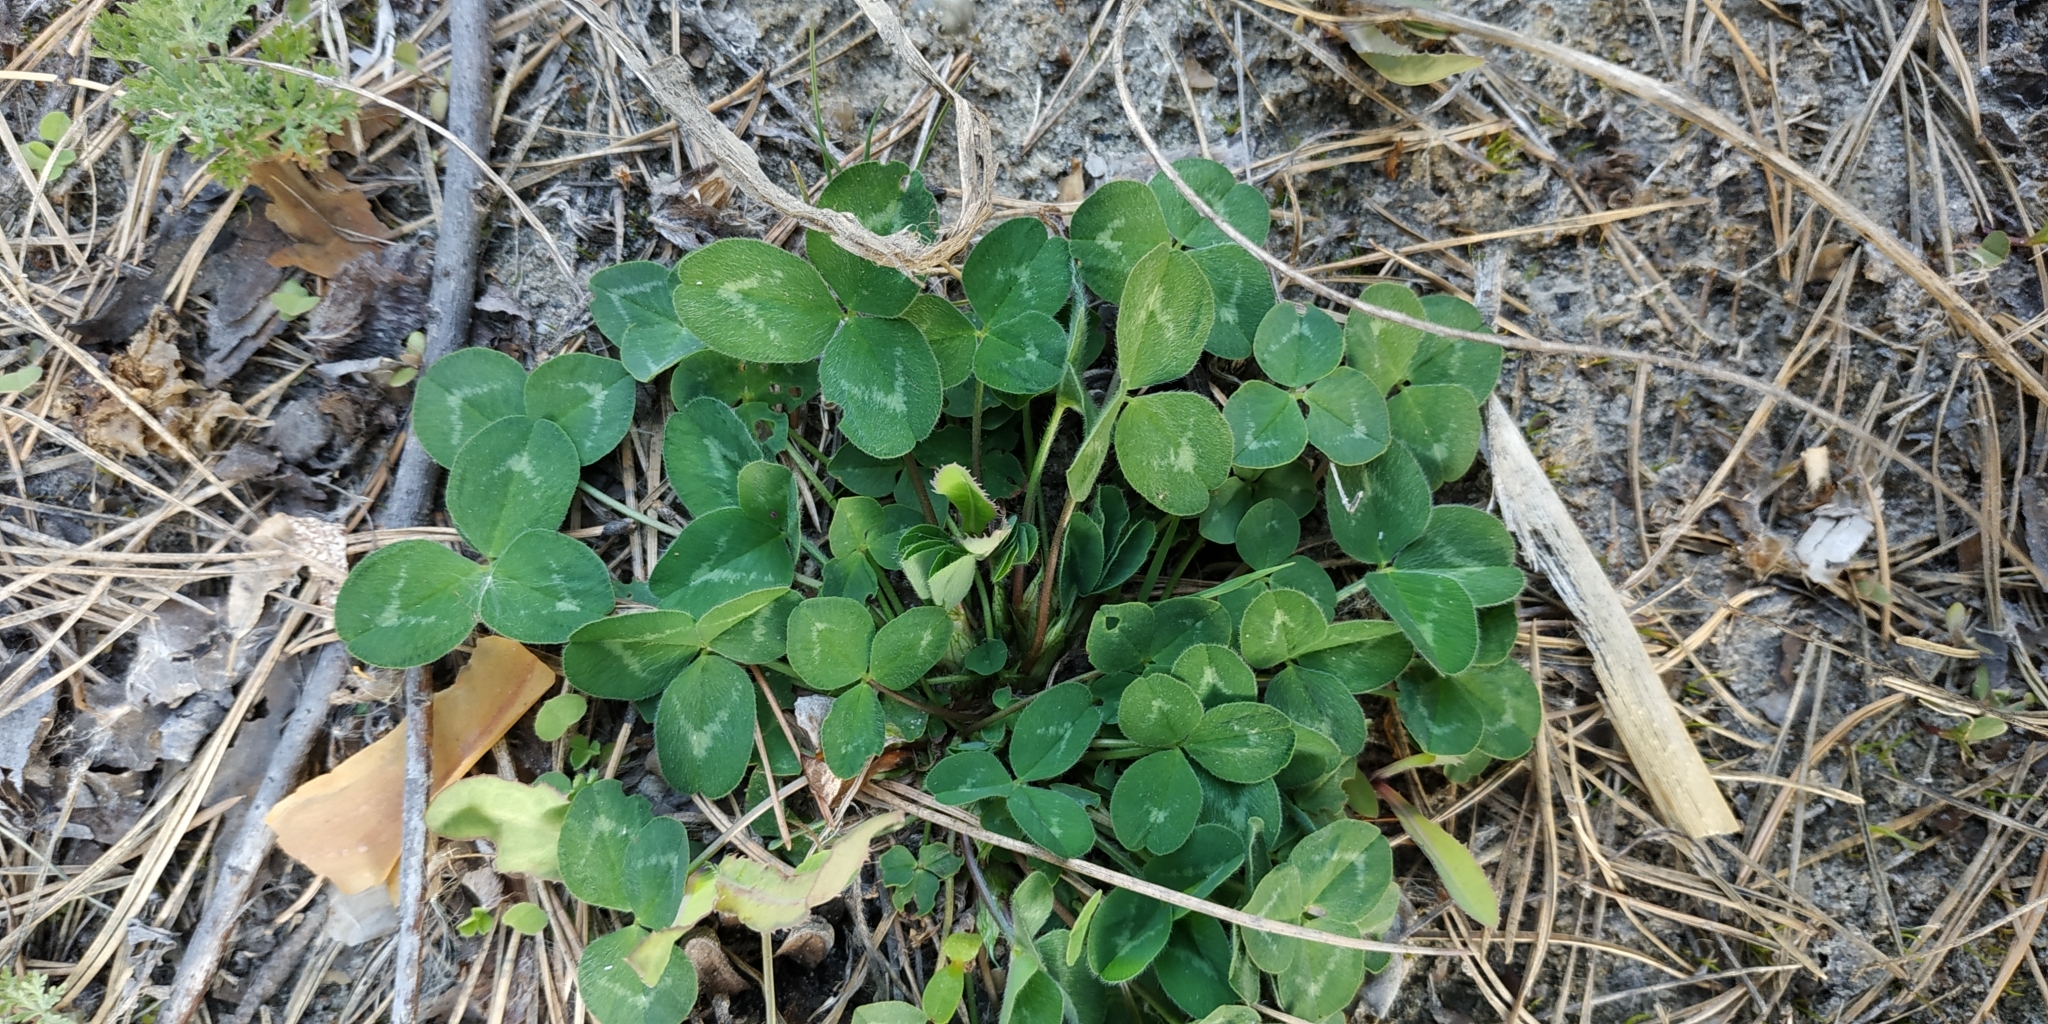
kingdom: Plantae
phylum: Tracheophyta
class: Magnoliopsida
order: Fabales
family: Fabaceae
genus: Trifolium
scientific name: Trifolium pratense
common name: Red clover
